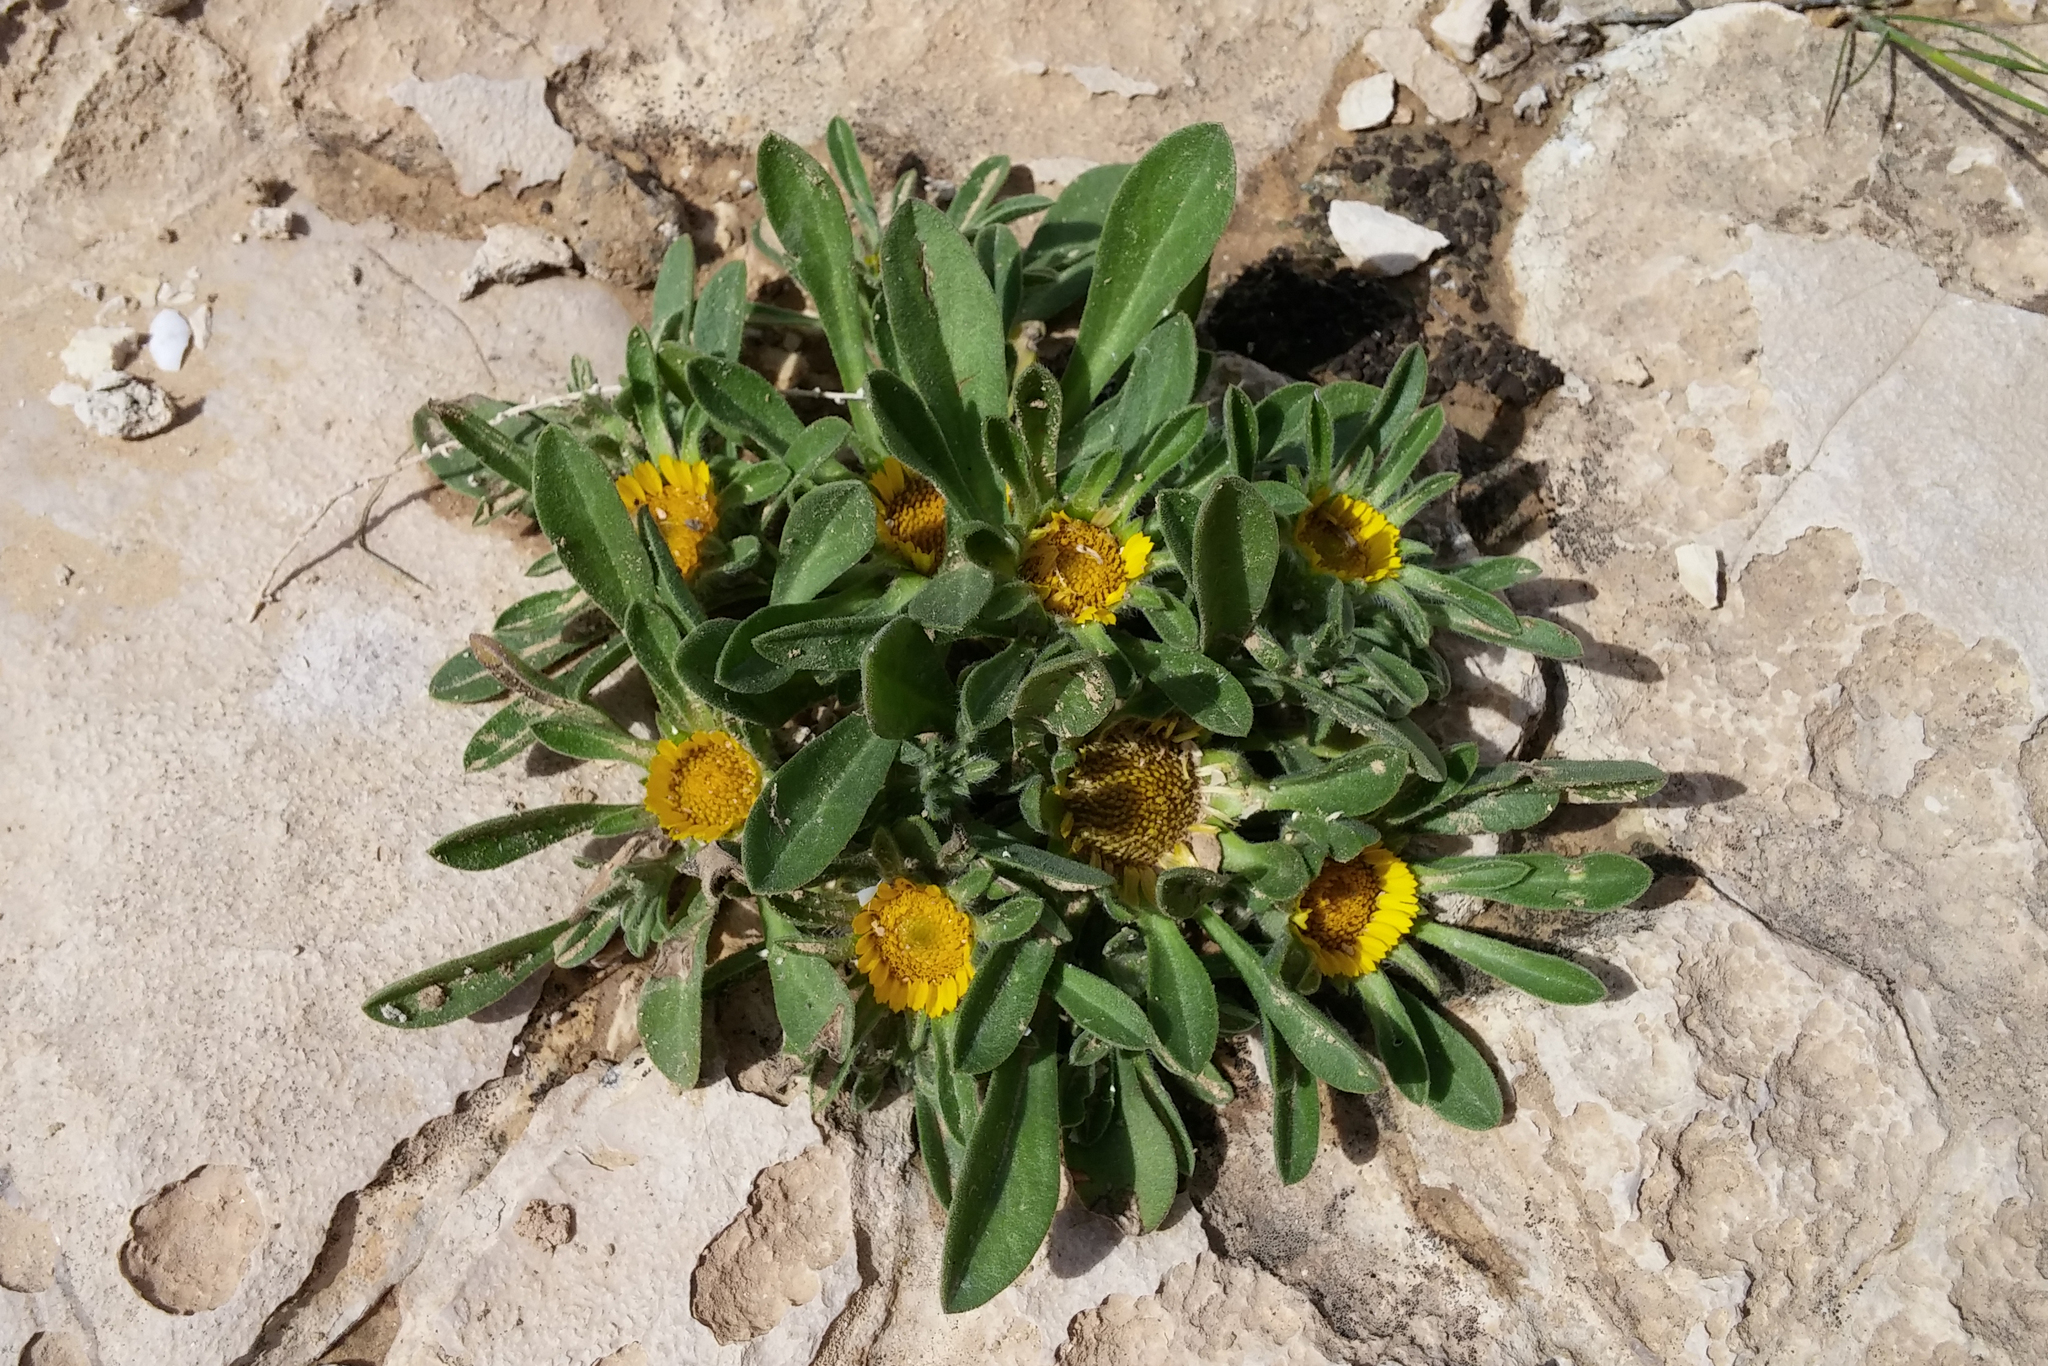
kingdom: Plantae
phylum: Tracheophyta
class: Magnoliopsida
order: Asterales
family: Asteraceae
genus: Pallenis
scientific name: Pallenis hierochuntica
